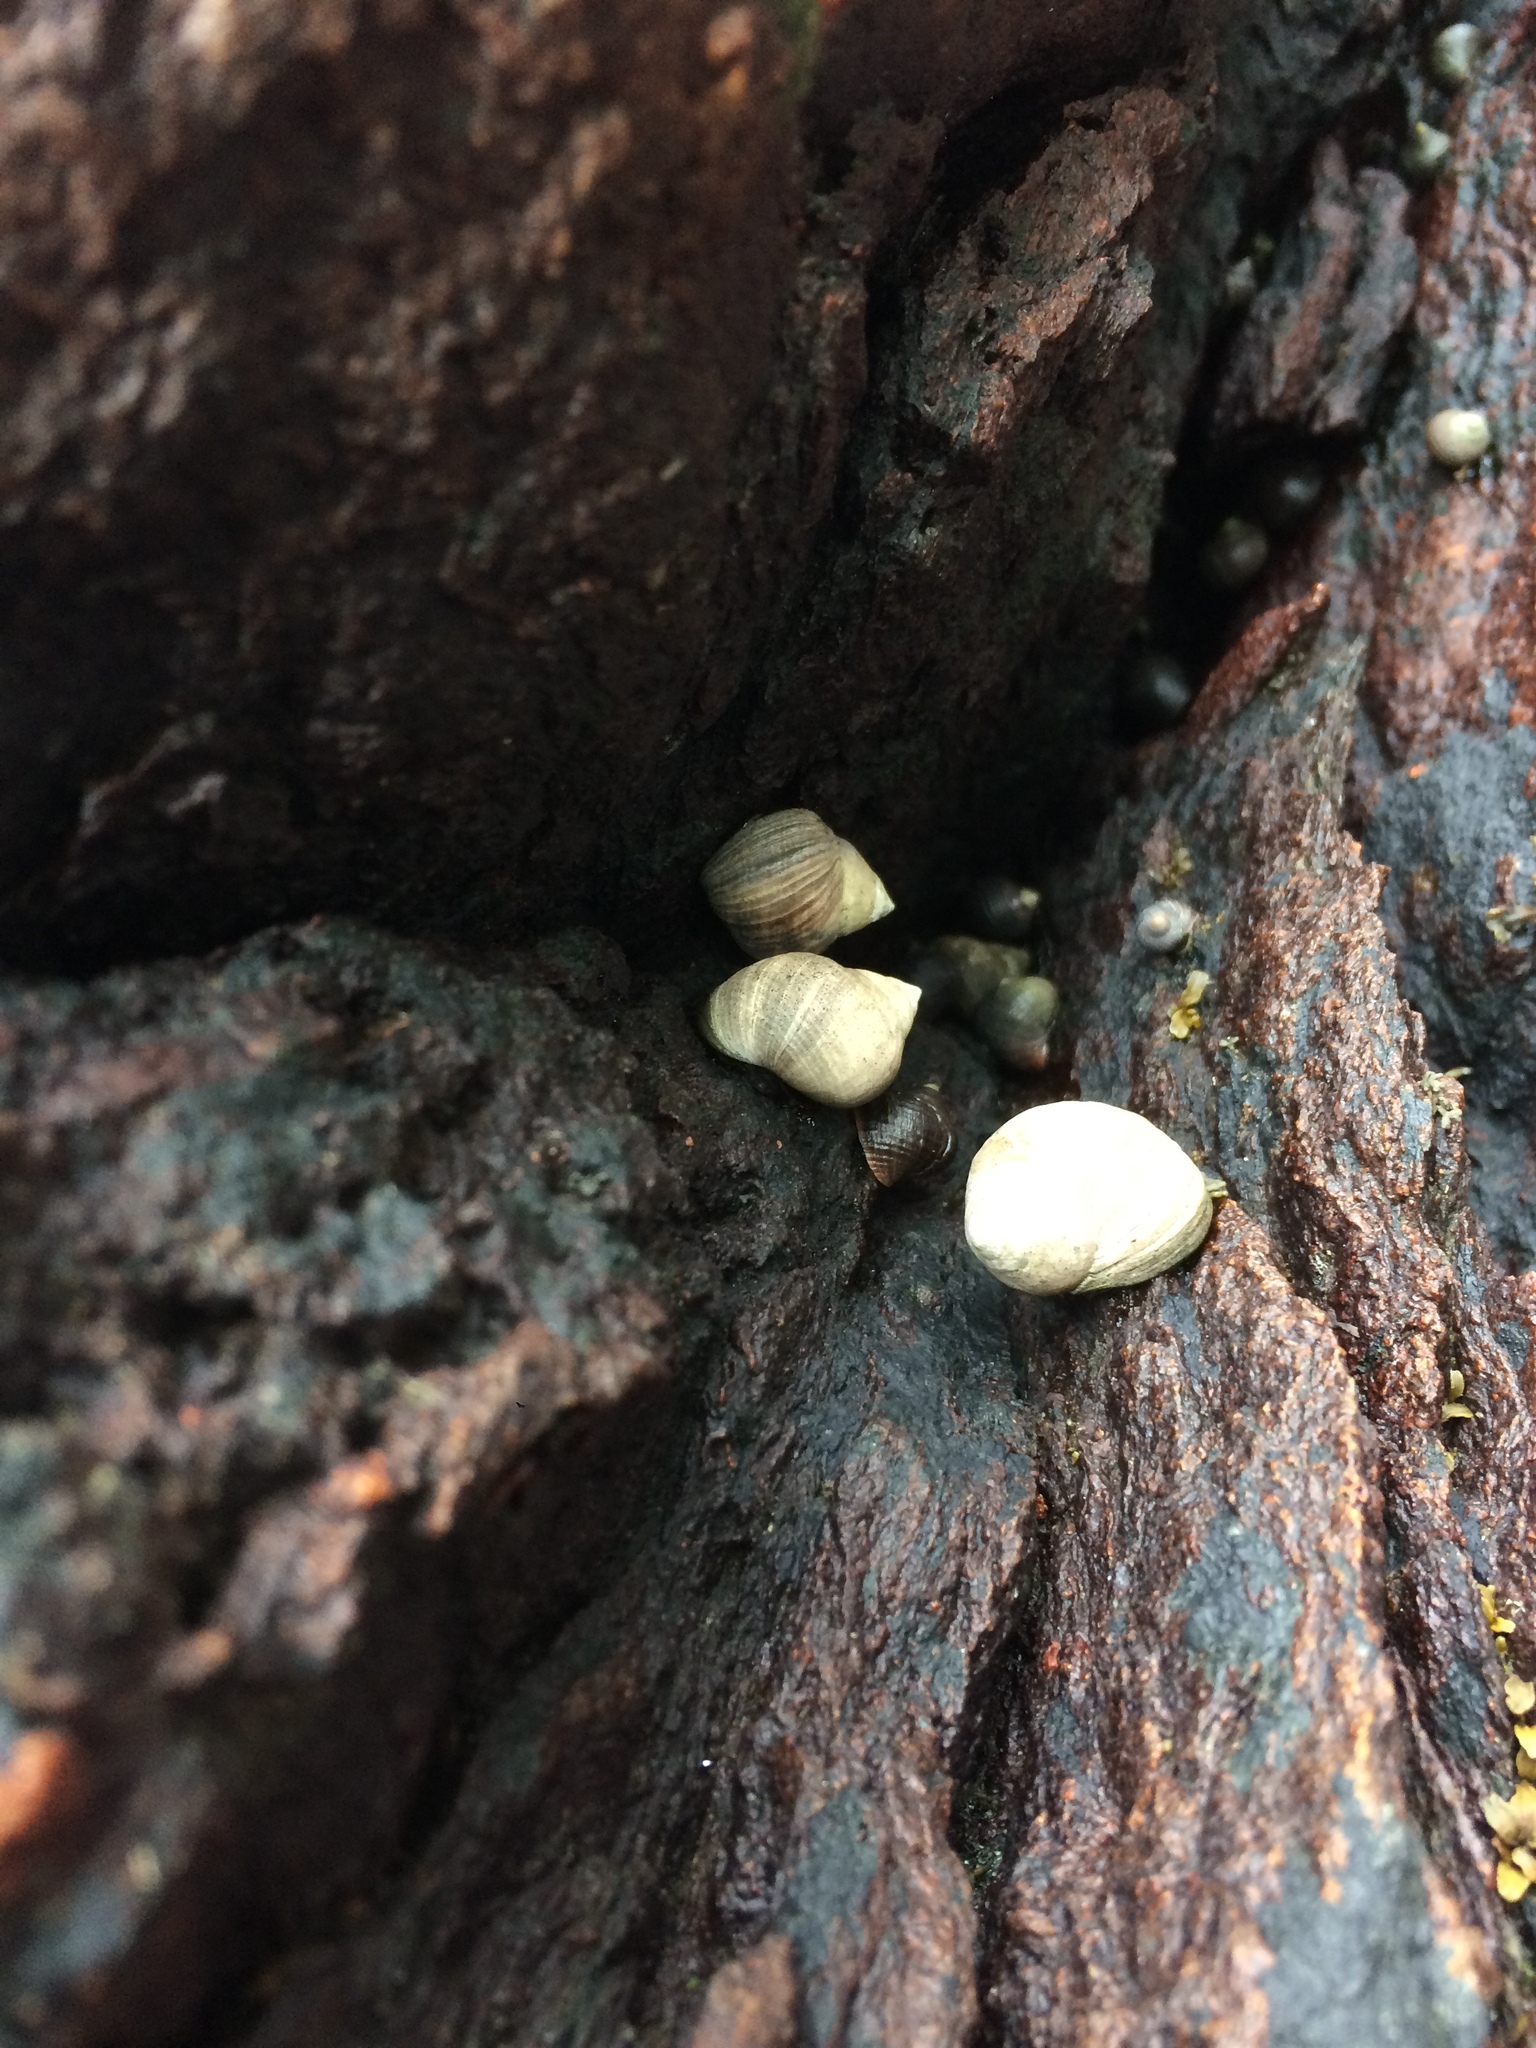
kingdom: Animalia
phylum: Mollusca
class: Gastropoda
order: Littorinimorpha
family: Littorinidae
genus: Littorina
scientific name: Littorina littorea
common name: Common periwinkle
